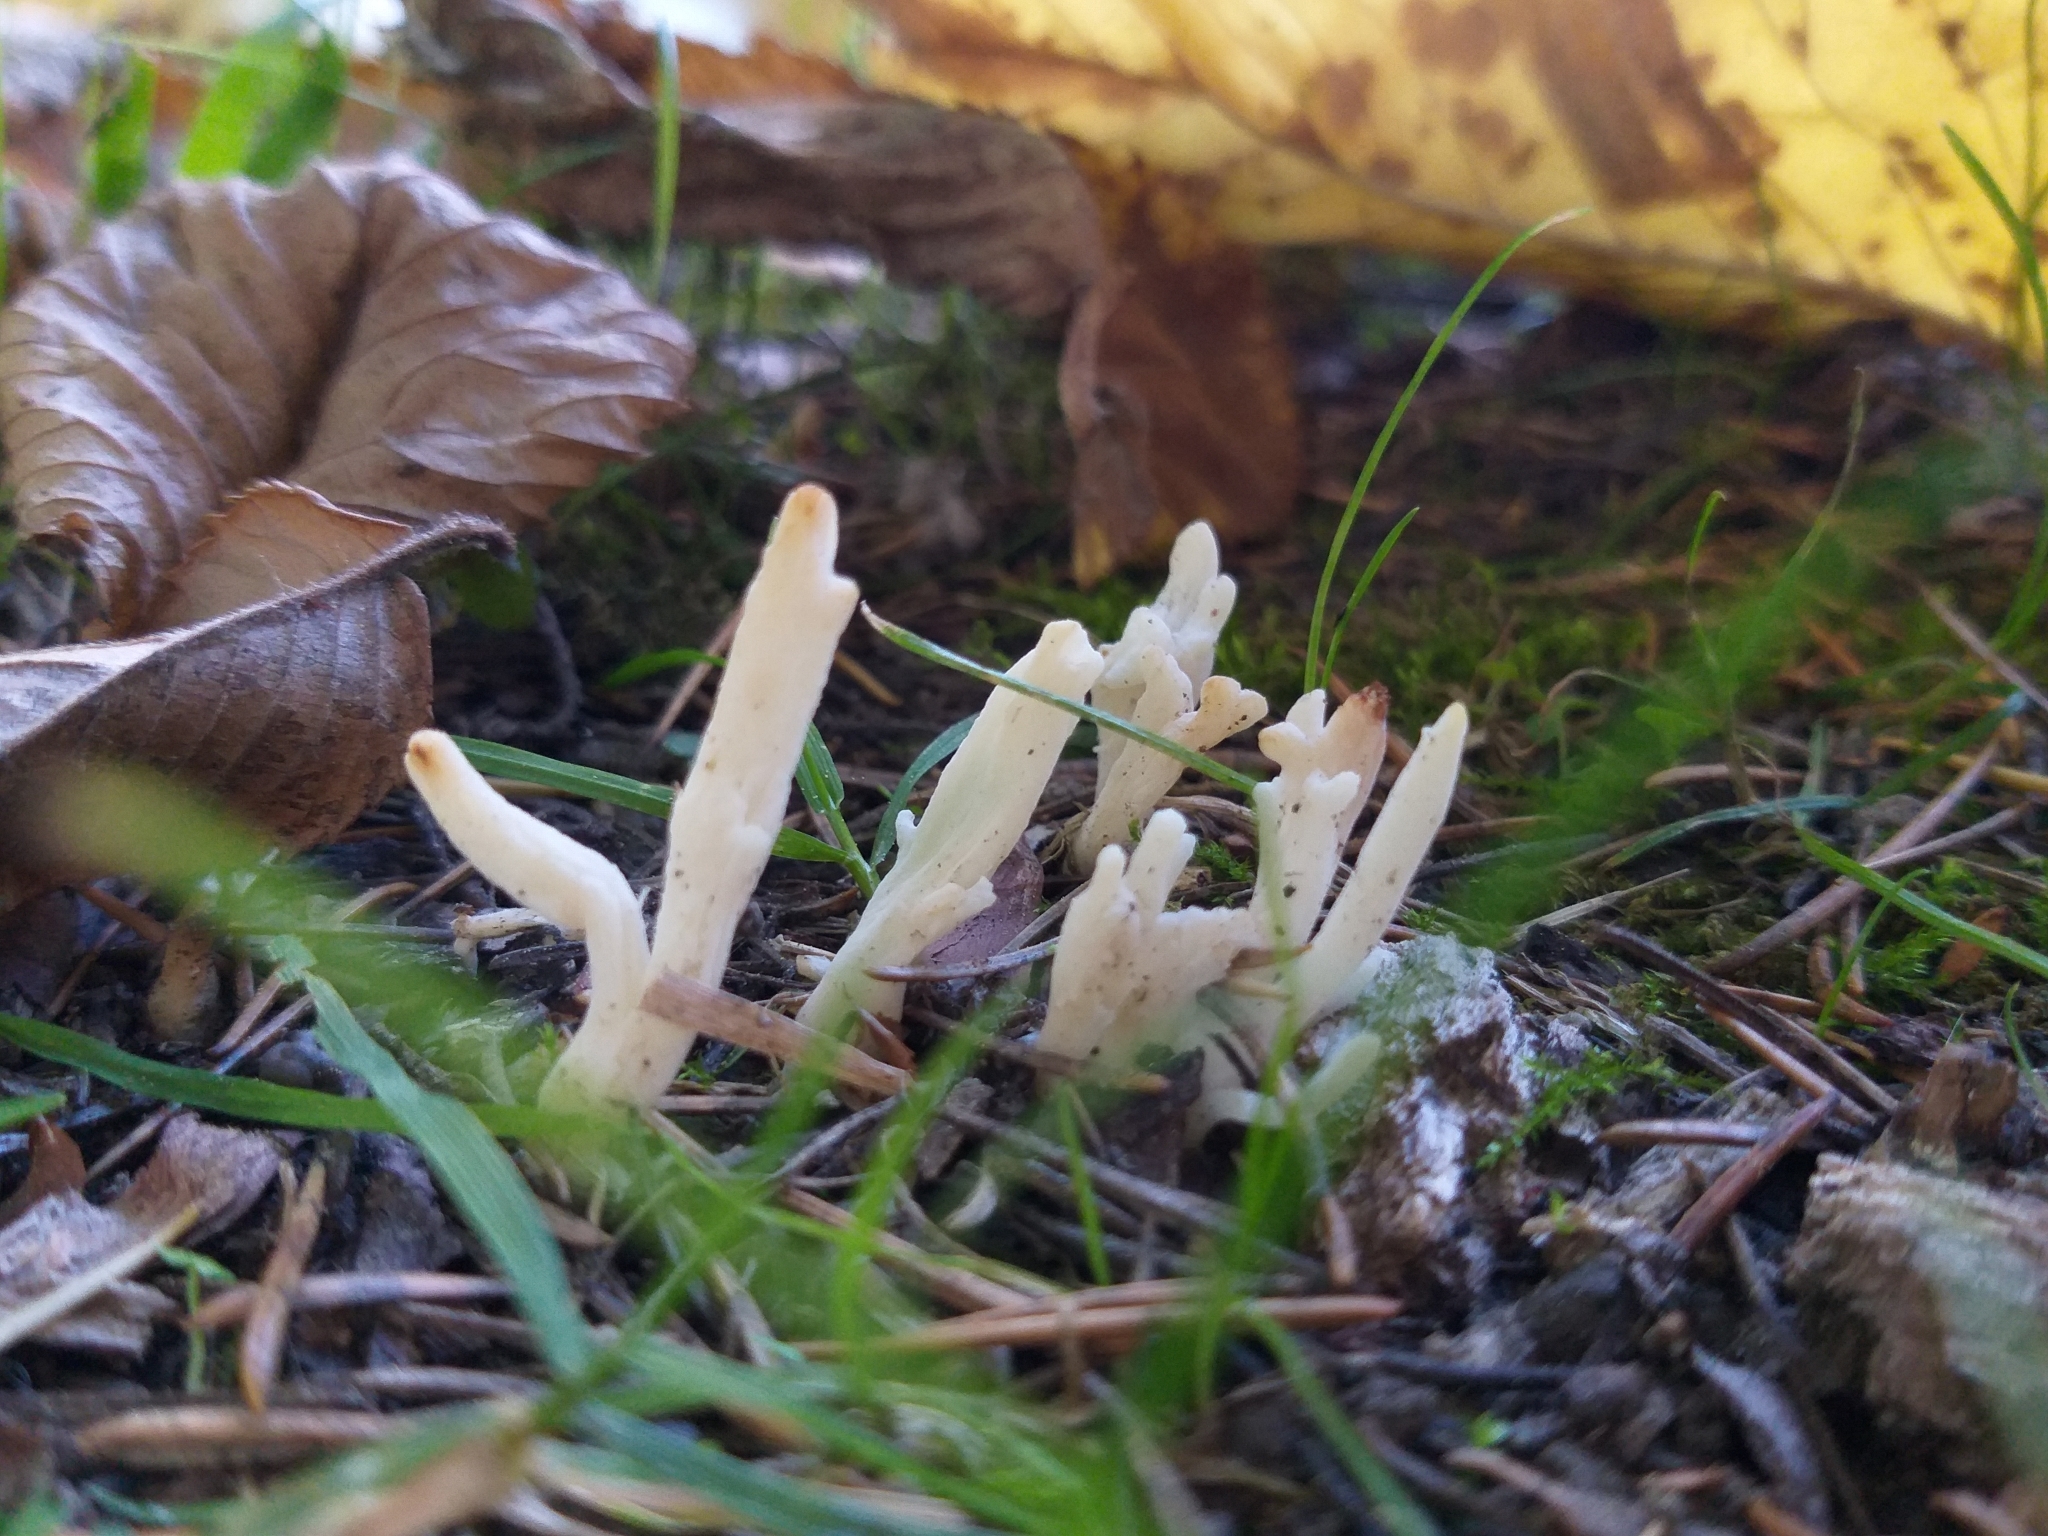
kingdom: Fungi
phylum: Basidiomycota
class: Agaricomycetes
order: Cantharellales
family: Hydnaceae
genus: Clavulina
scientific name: Clavulina rugosa
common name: Wrinkled club
